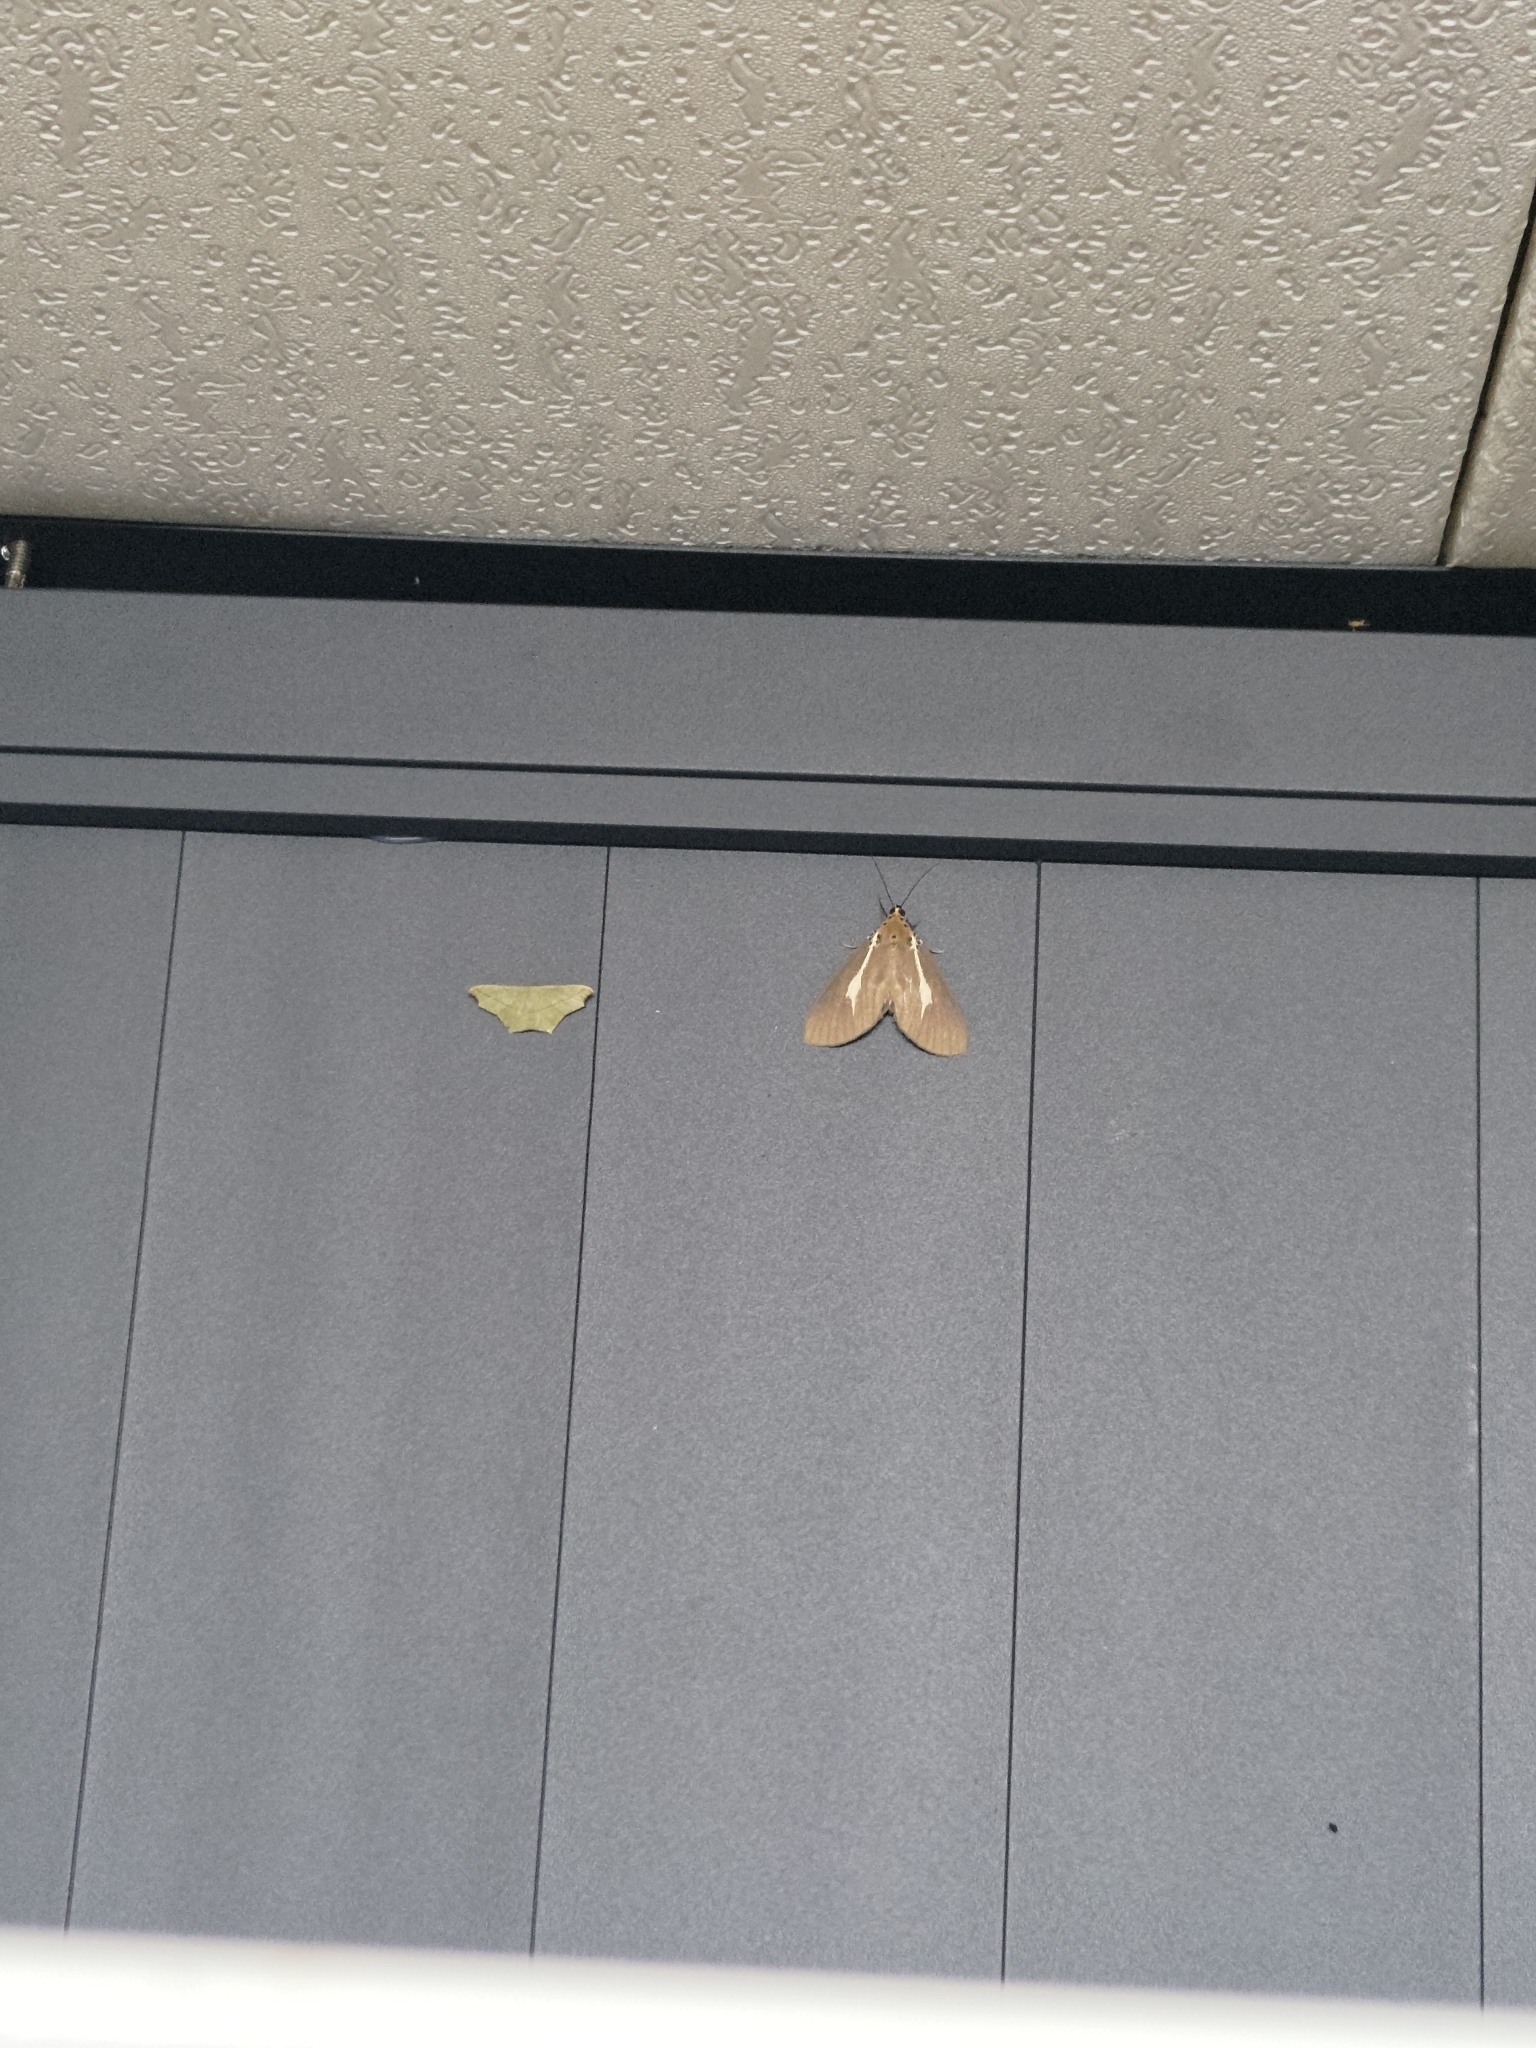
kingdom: Animalia
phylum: Arthropoda
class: Insecta
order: Lepidoptera
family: Erebidae
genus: Asota
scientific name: Asota heliconia
